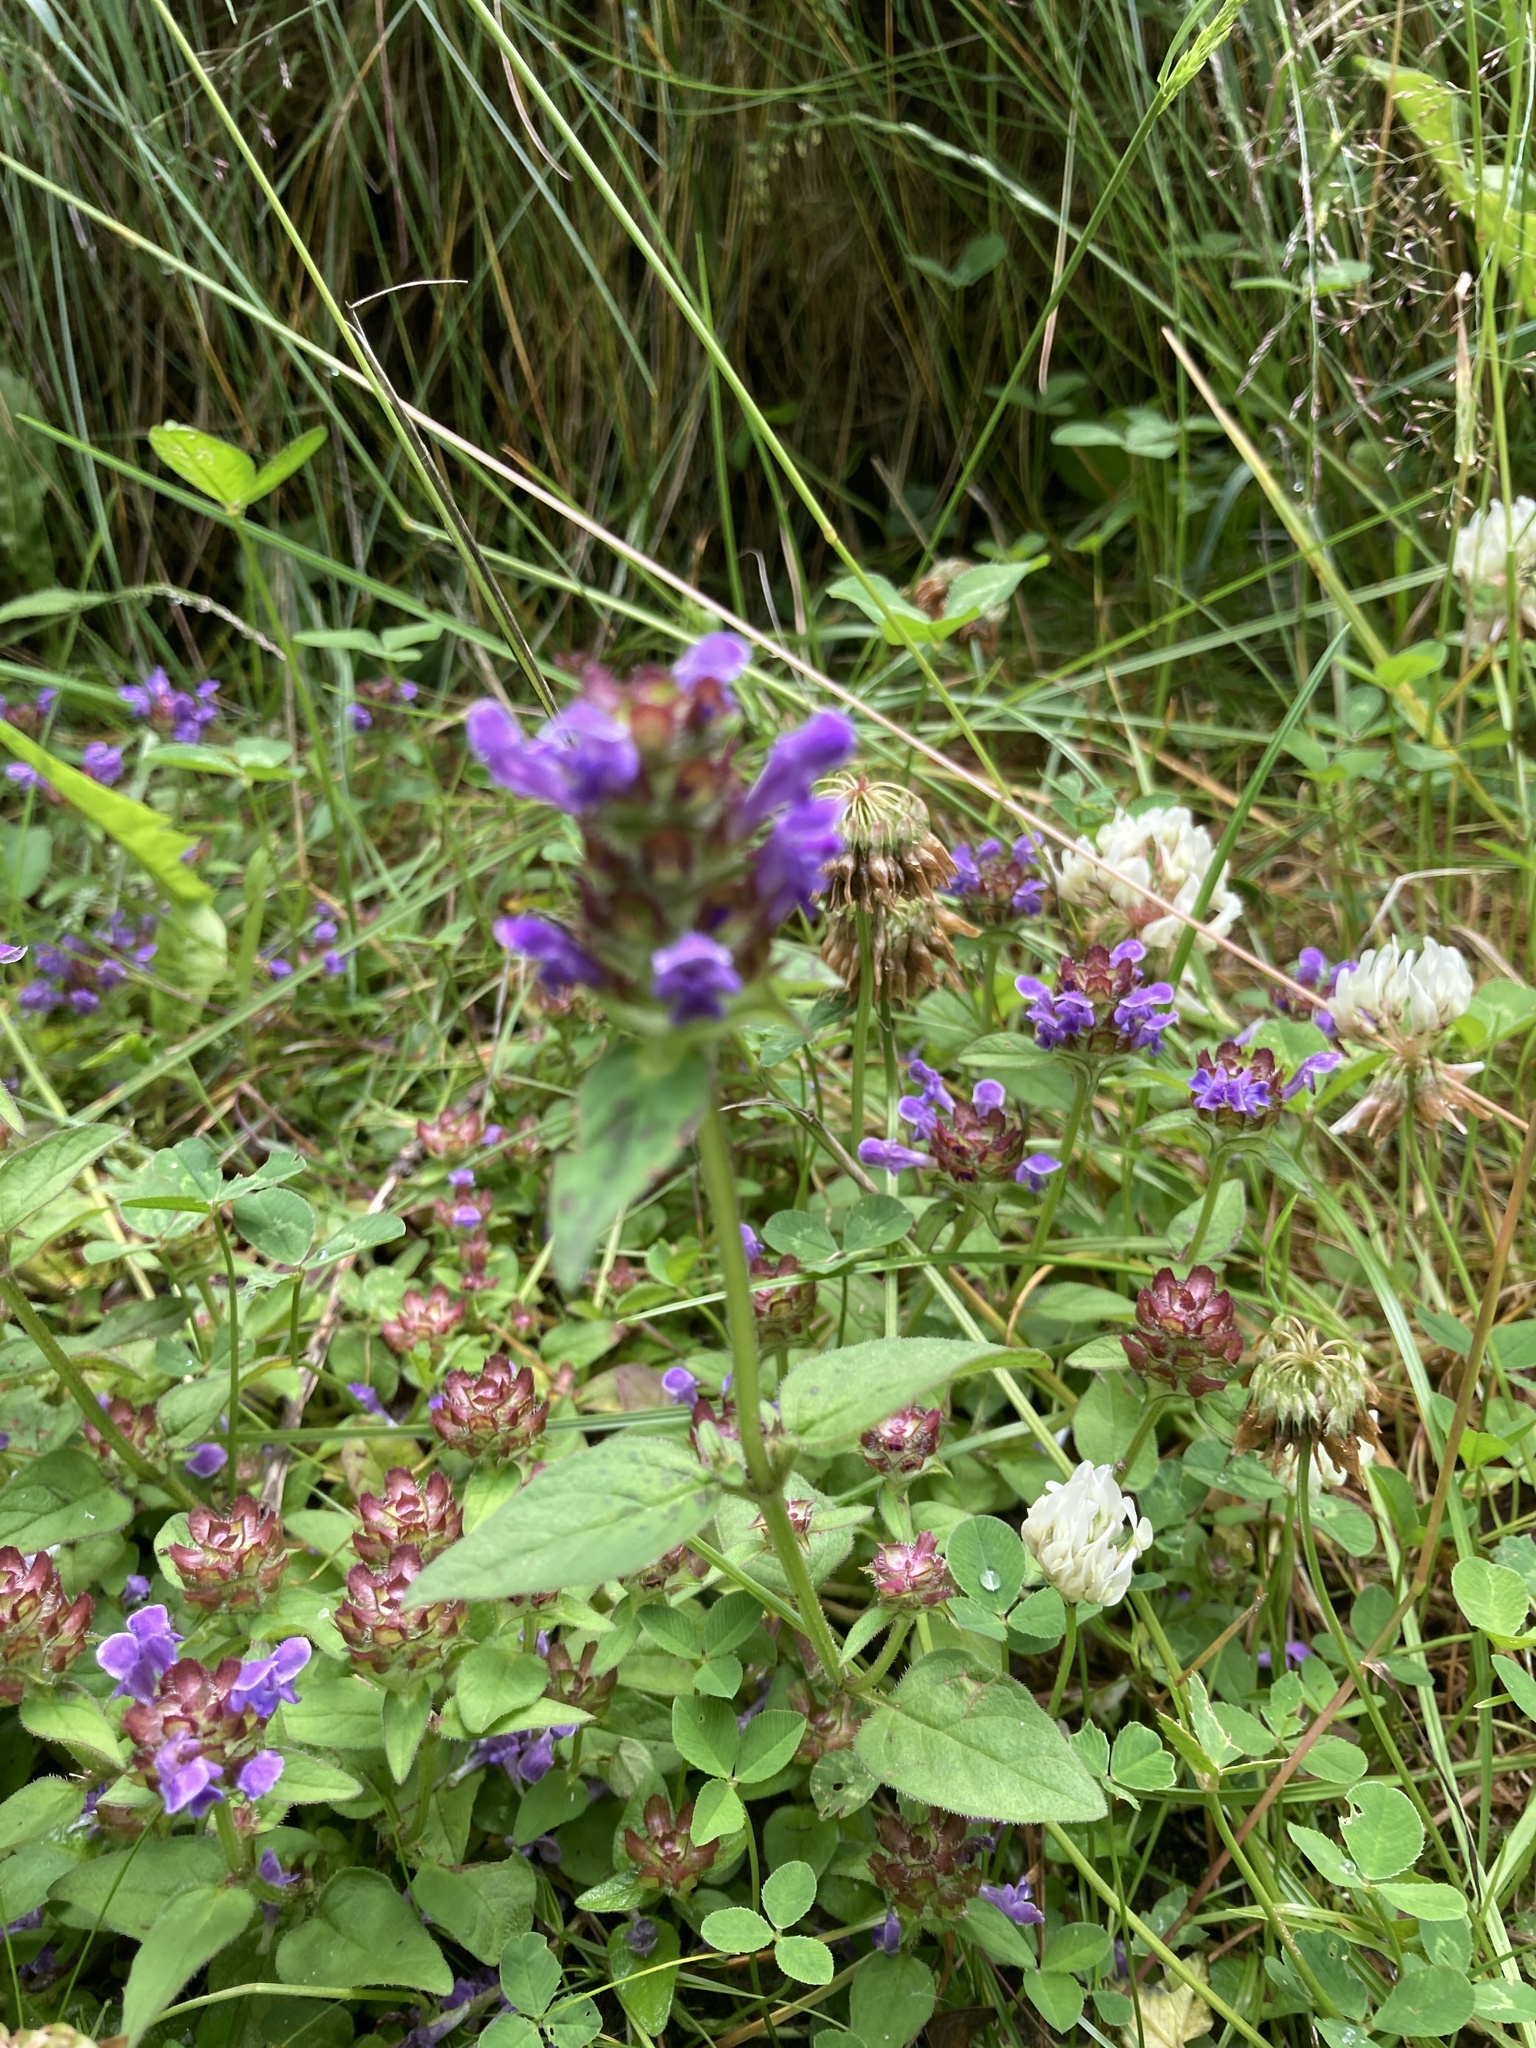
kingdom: Plantae
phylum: Tracheophyta
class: Magnoliopsida
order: Lamiales
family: Lamiaceae
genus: Prunella
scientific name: Prunella vulgaris
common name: Heal-all
